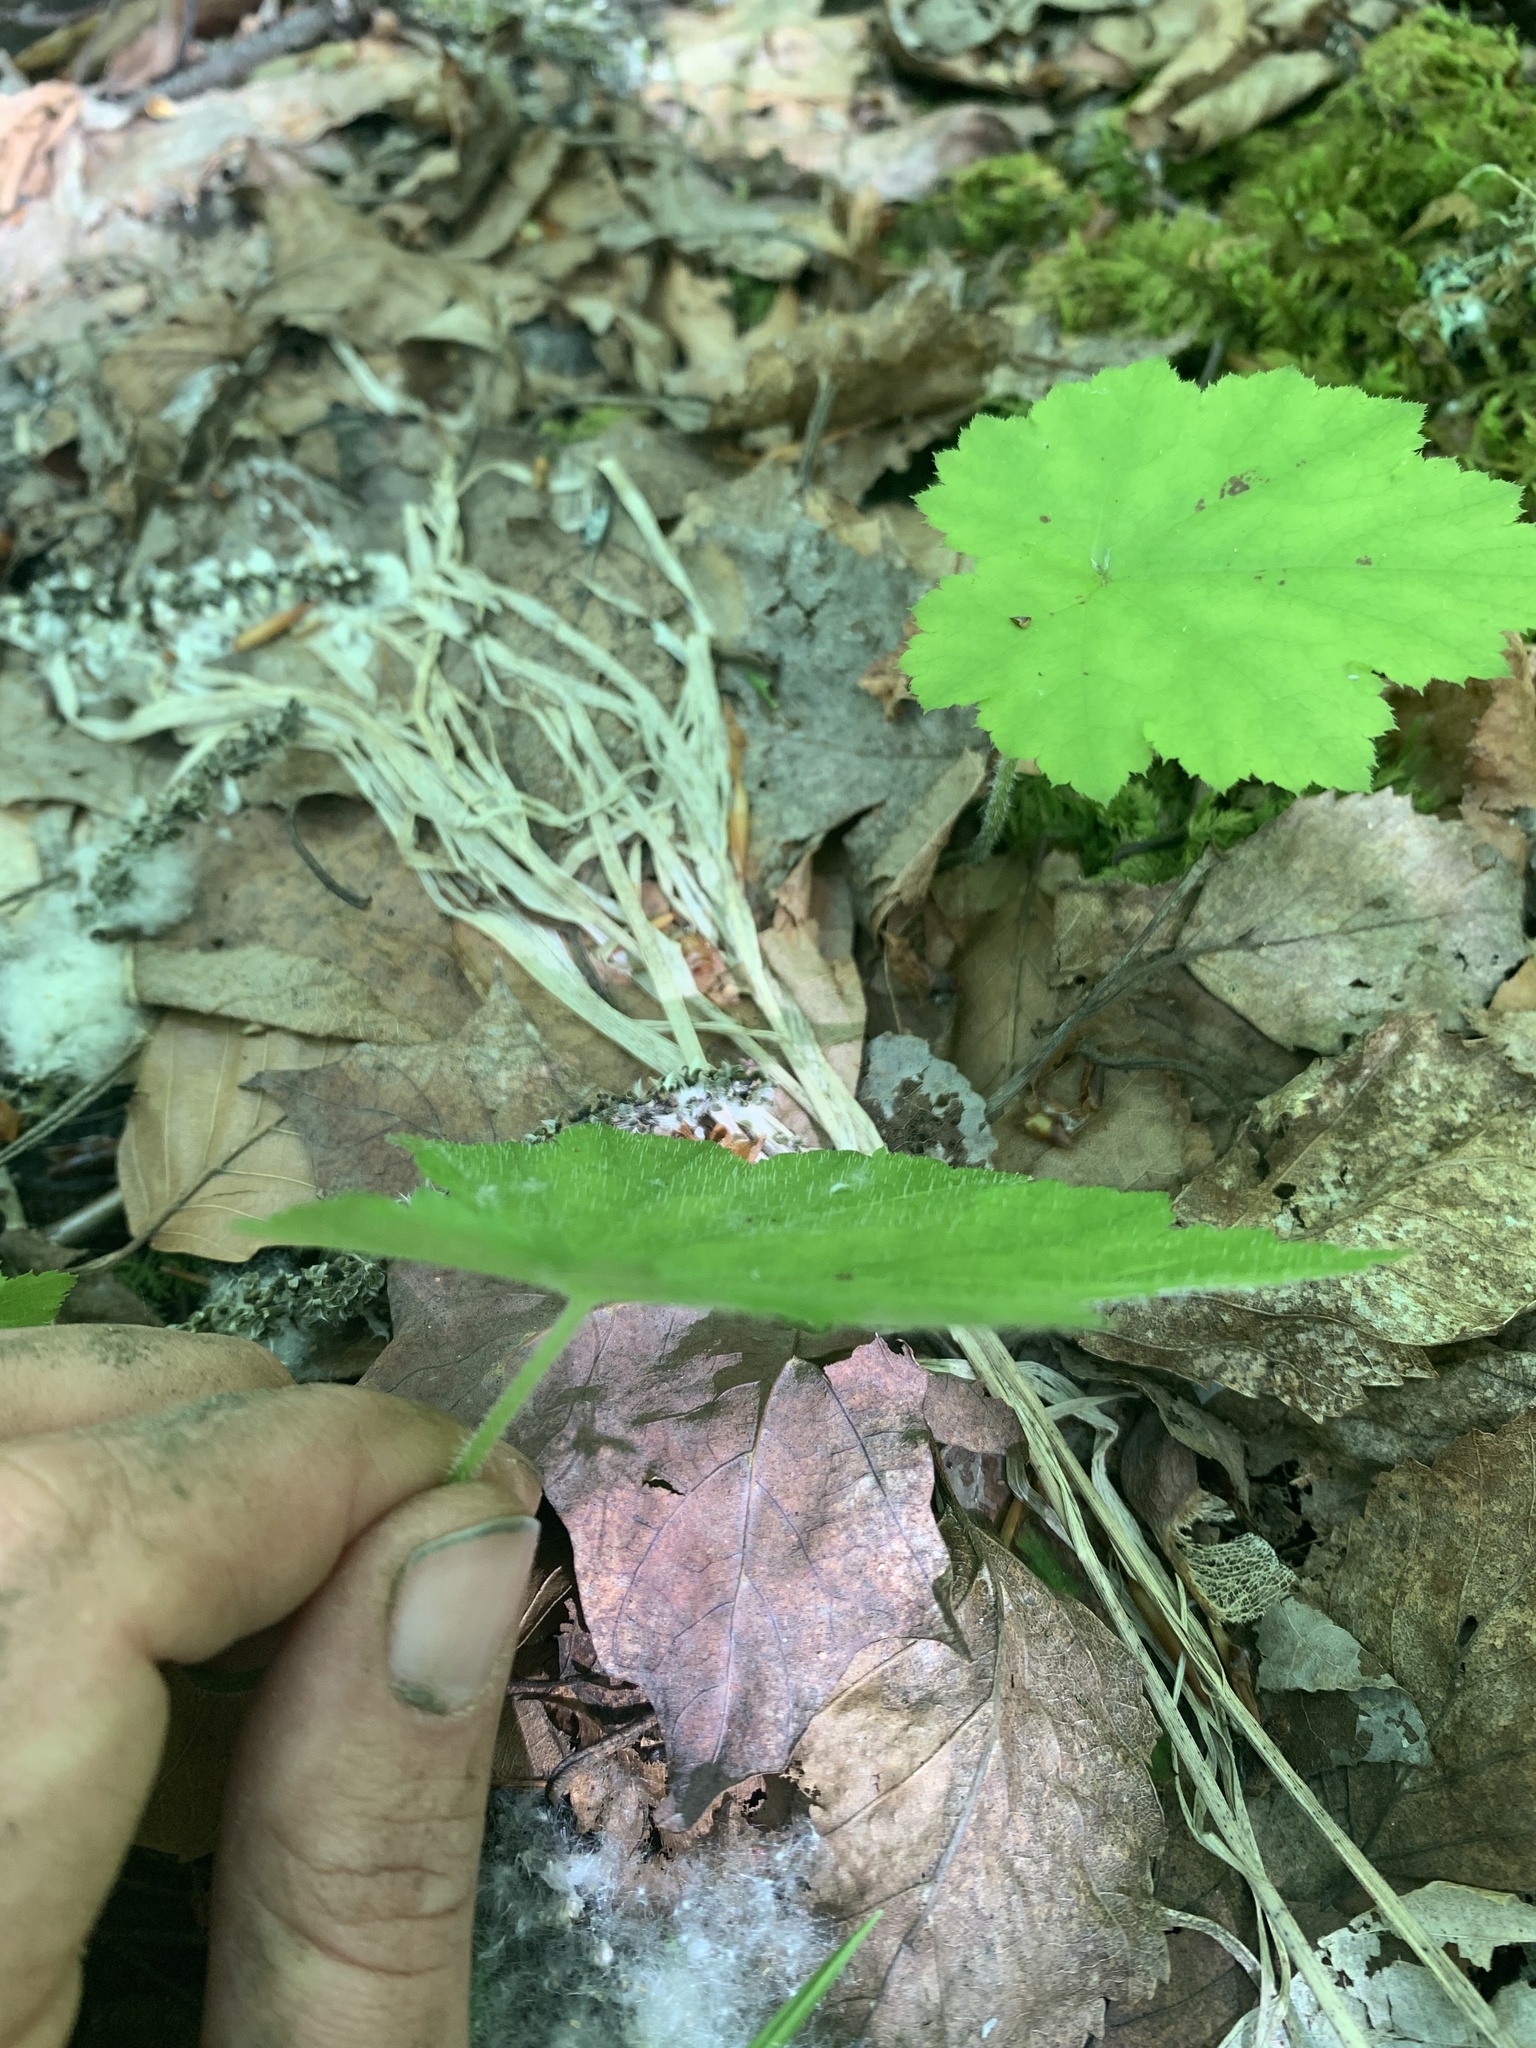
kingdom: Plantae
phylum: Tracheophyta
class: Magnoliopsida
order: Saxifragales
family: Saxifragaceae
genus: Tiarella
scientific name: Tiarella stolonifera
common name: Stoloniferous foamflower
